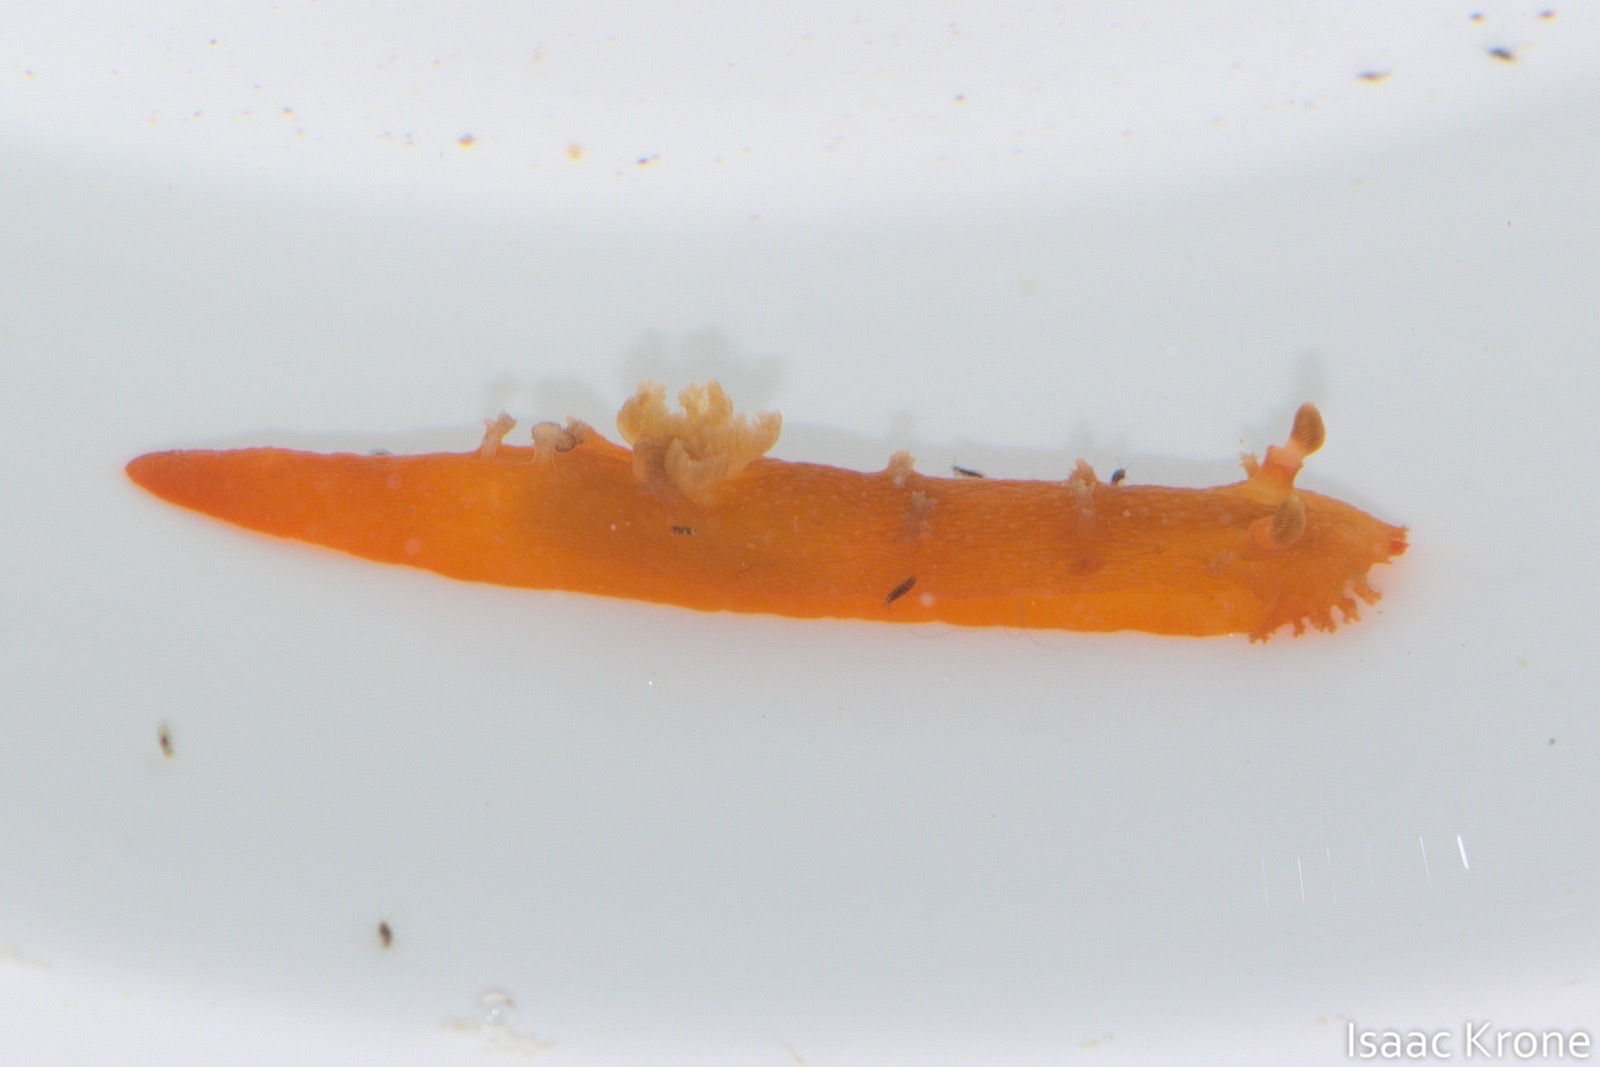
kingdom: Animalia
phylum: Mollusca
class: Gastropoda
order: Nudibranchia
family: Polyceridae
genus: Triopha
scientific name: Triopha maculata
